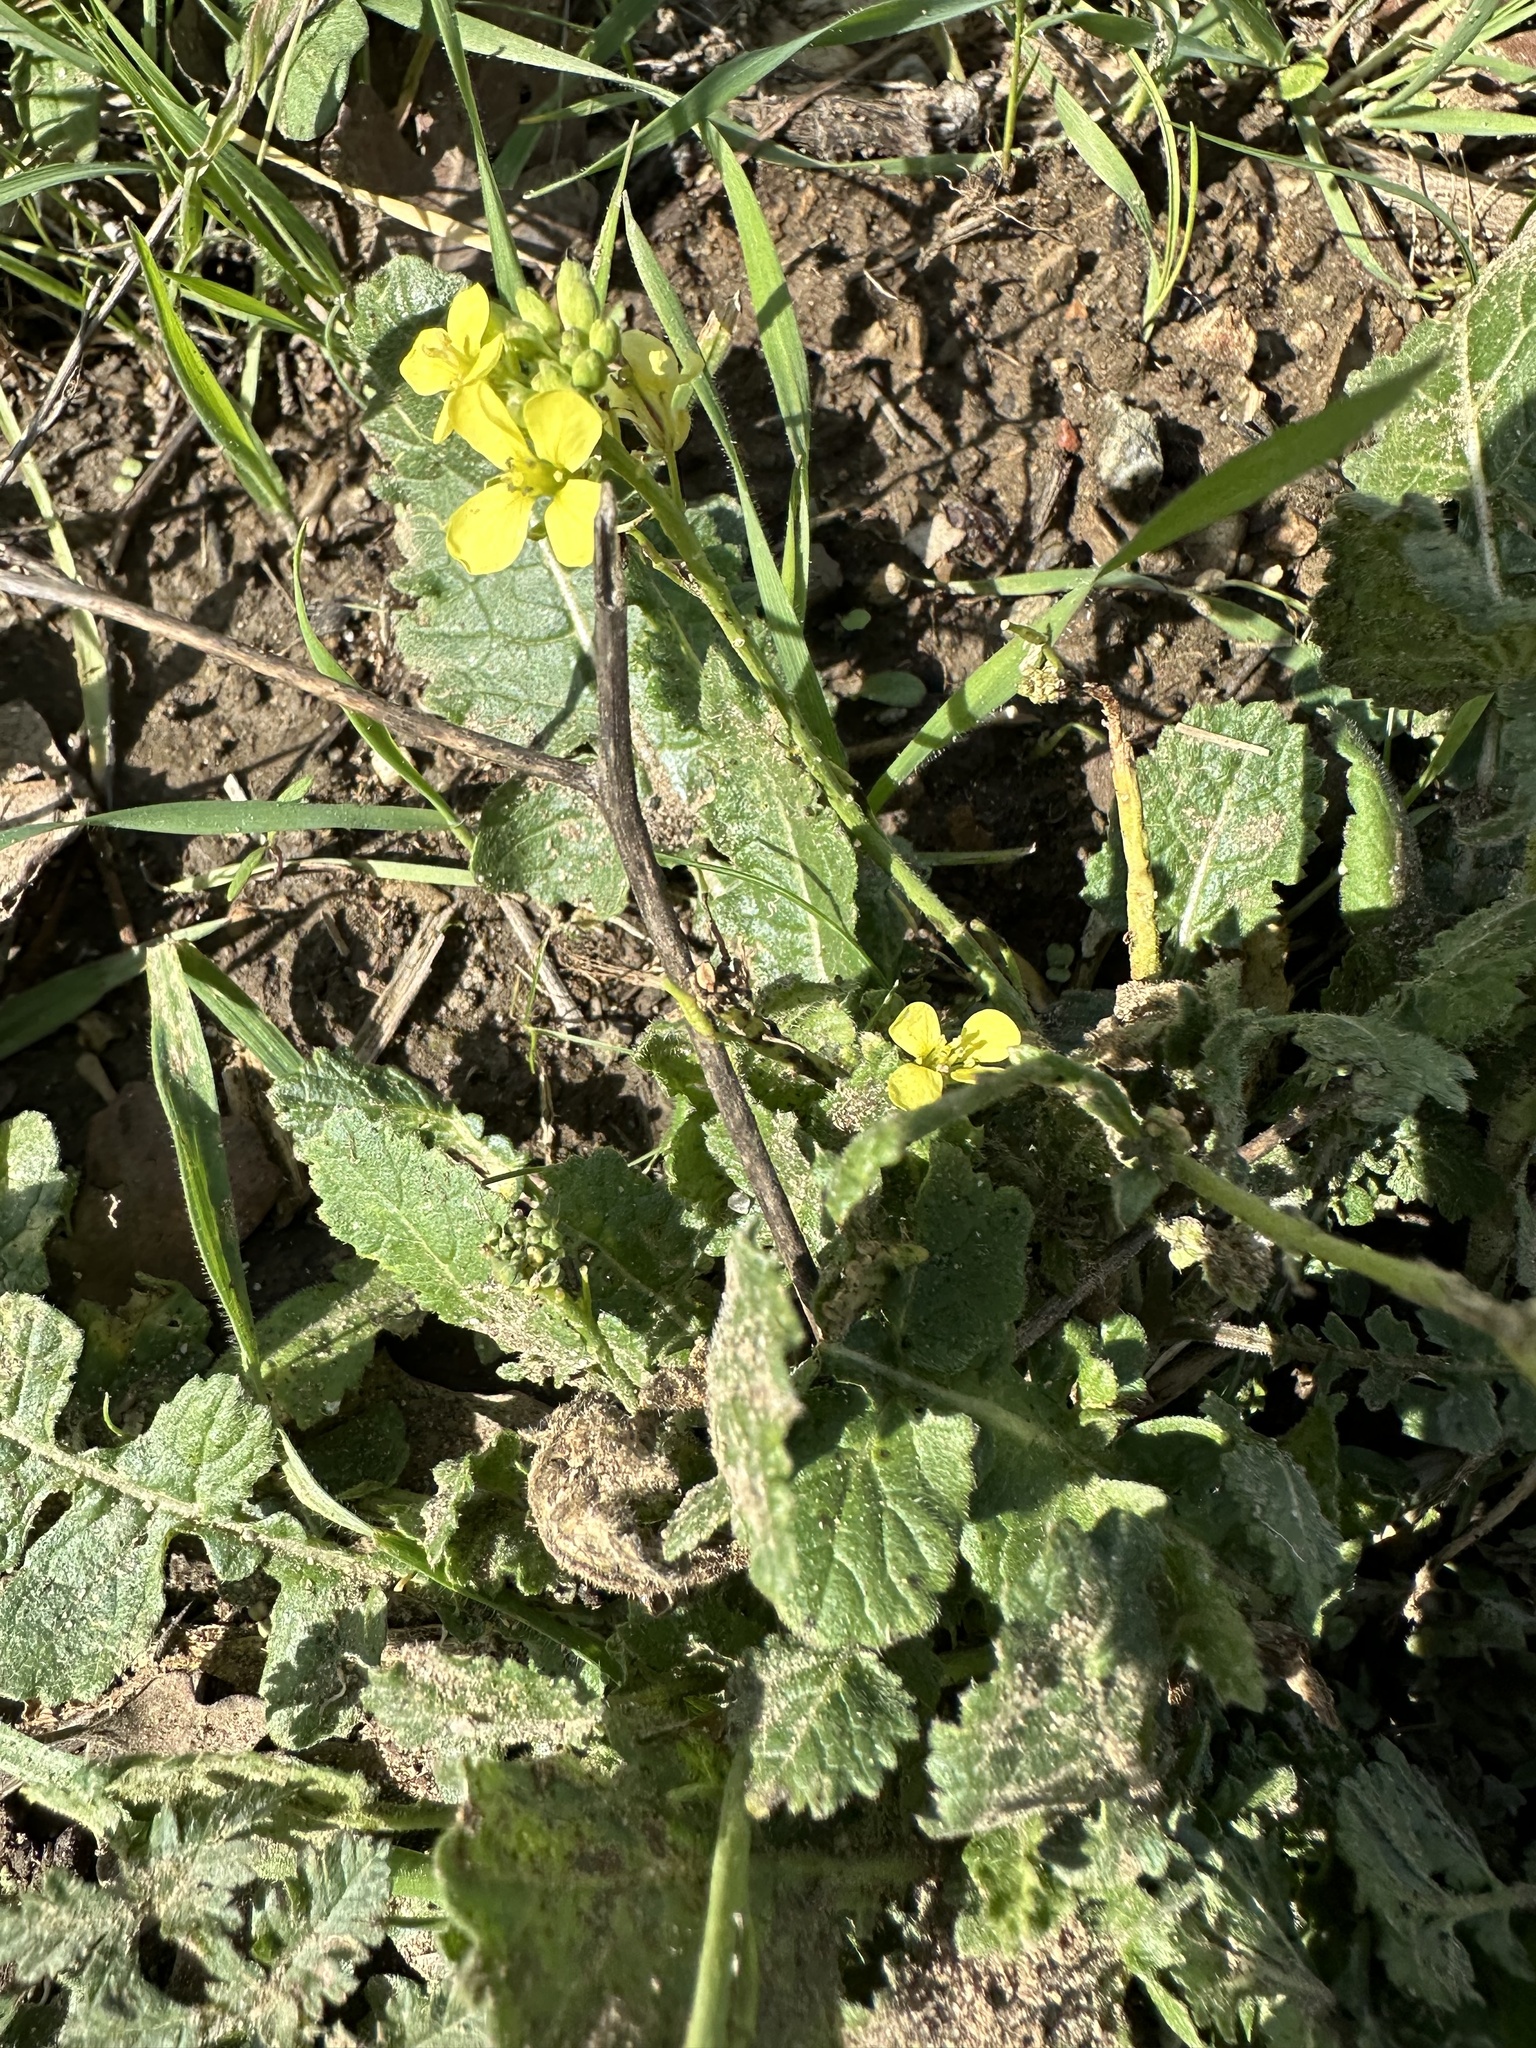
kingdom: Plantae
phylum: Tracheophyta
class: Magnoliopsida
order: Brassicales
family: Brassicaceae
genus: Hirschfeldia
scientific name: Hirschfeldia incana
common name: Hoary mustard
